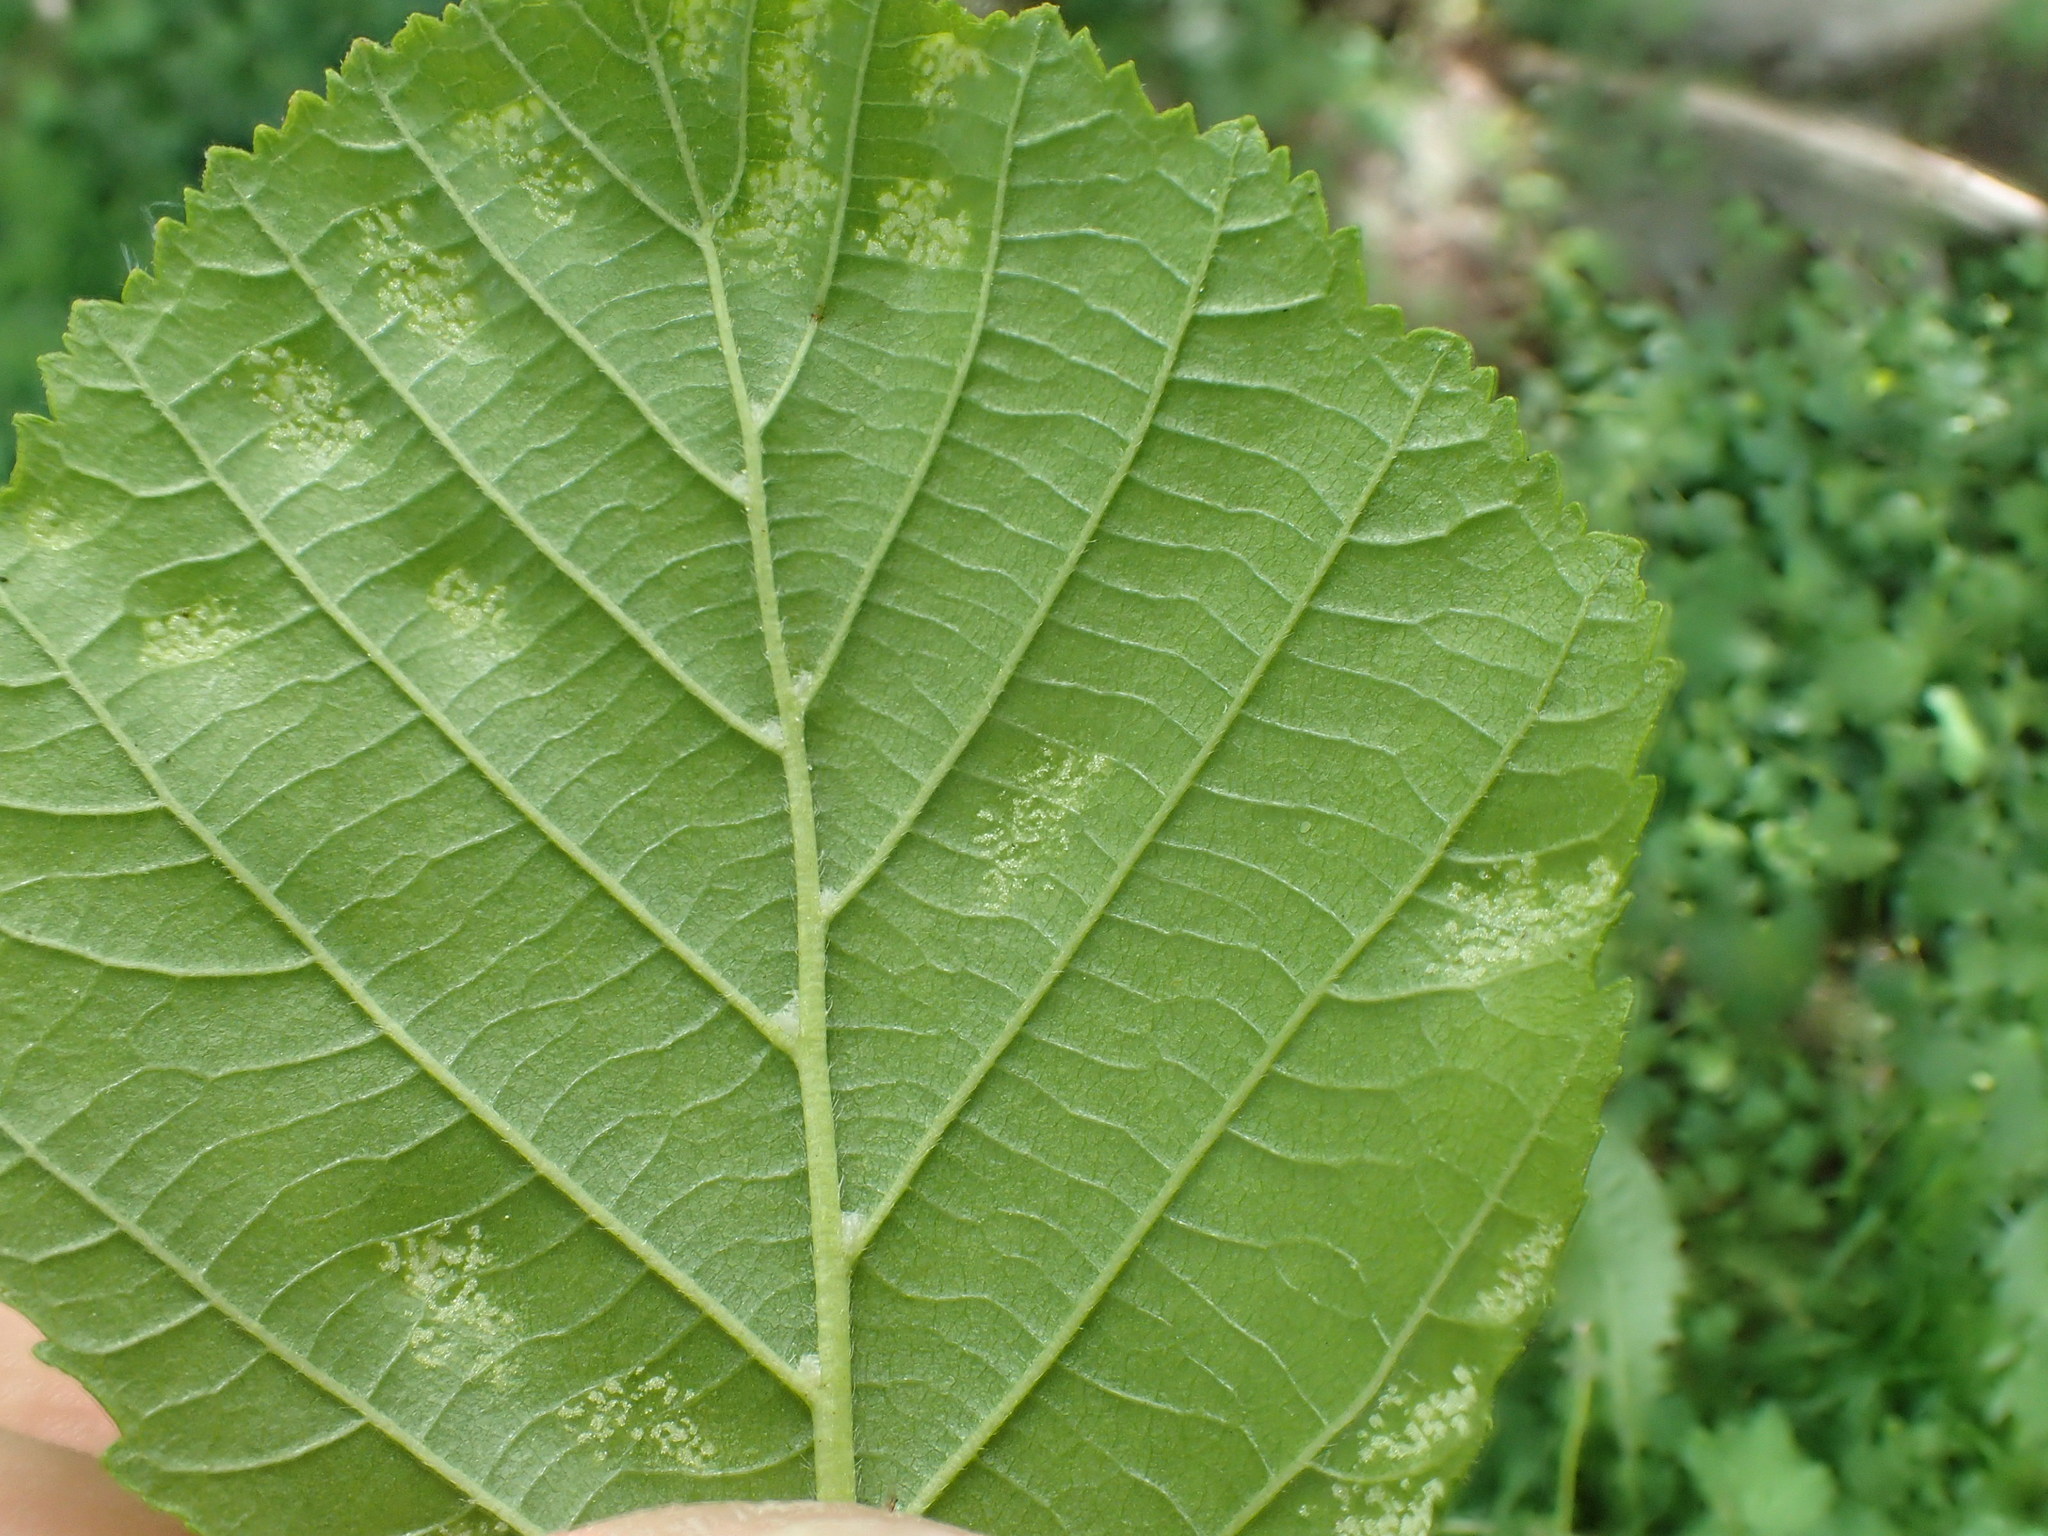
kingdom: Animalia
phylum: Arthropoda
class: Arachnida
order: Trombidiformes
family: Eriophyidae
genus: Acalitus
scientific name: Acalitus brevitarsus
